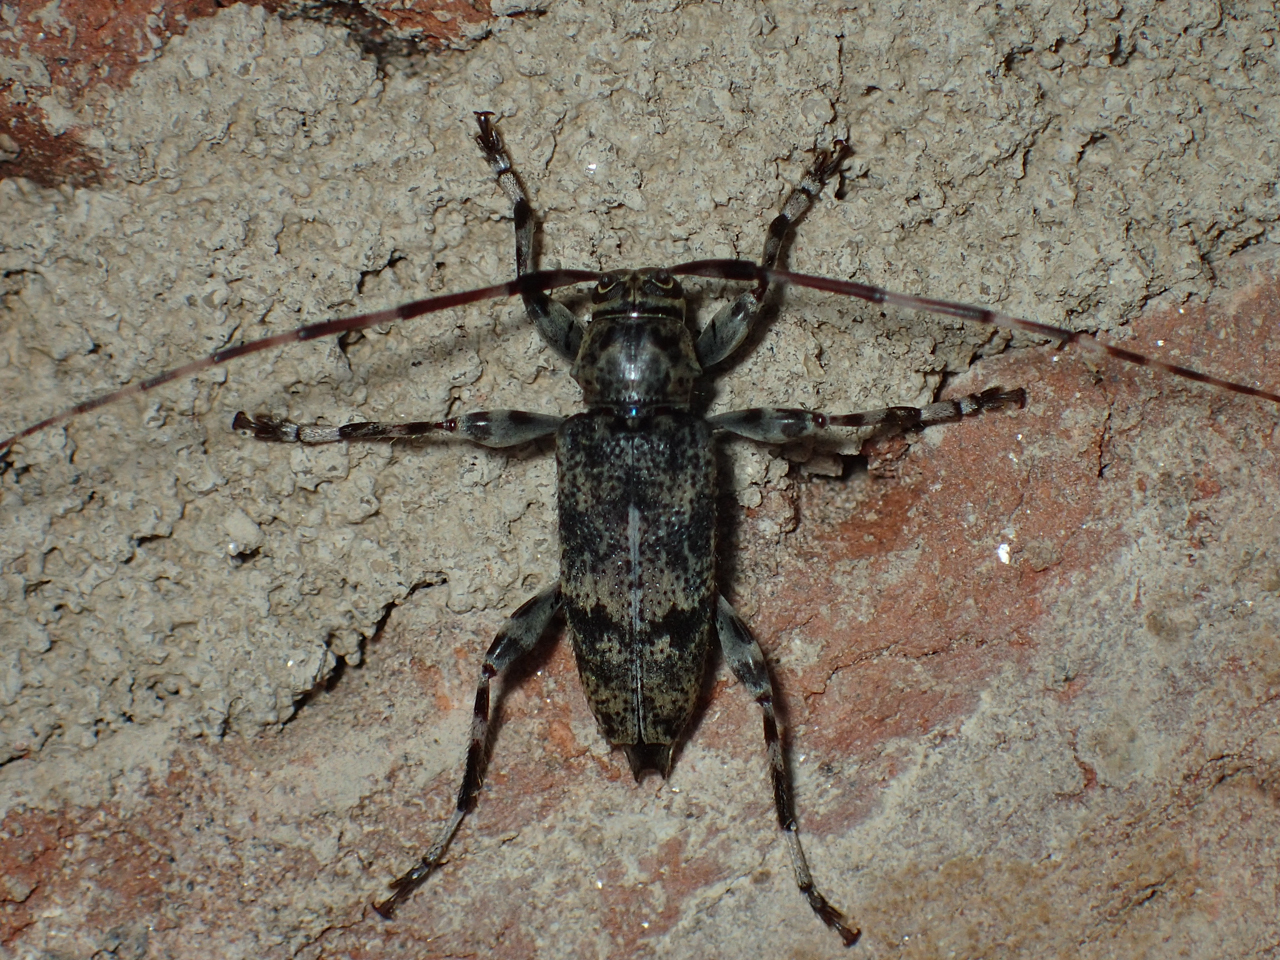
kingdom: Animalia
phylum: Arthropoda
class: Insecta
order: Coleoptera
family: Cerambycidae
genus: Graphisurus
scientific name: Graphisurus fasciatus
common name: Banded graphisurus
